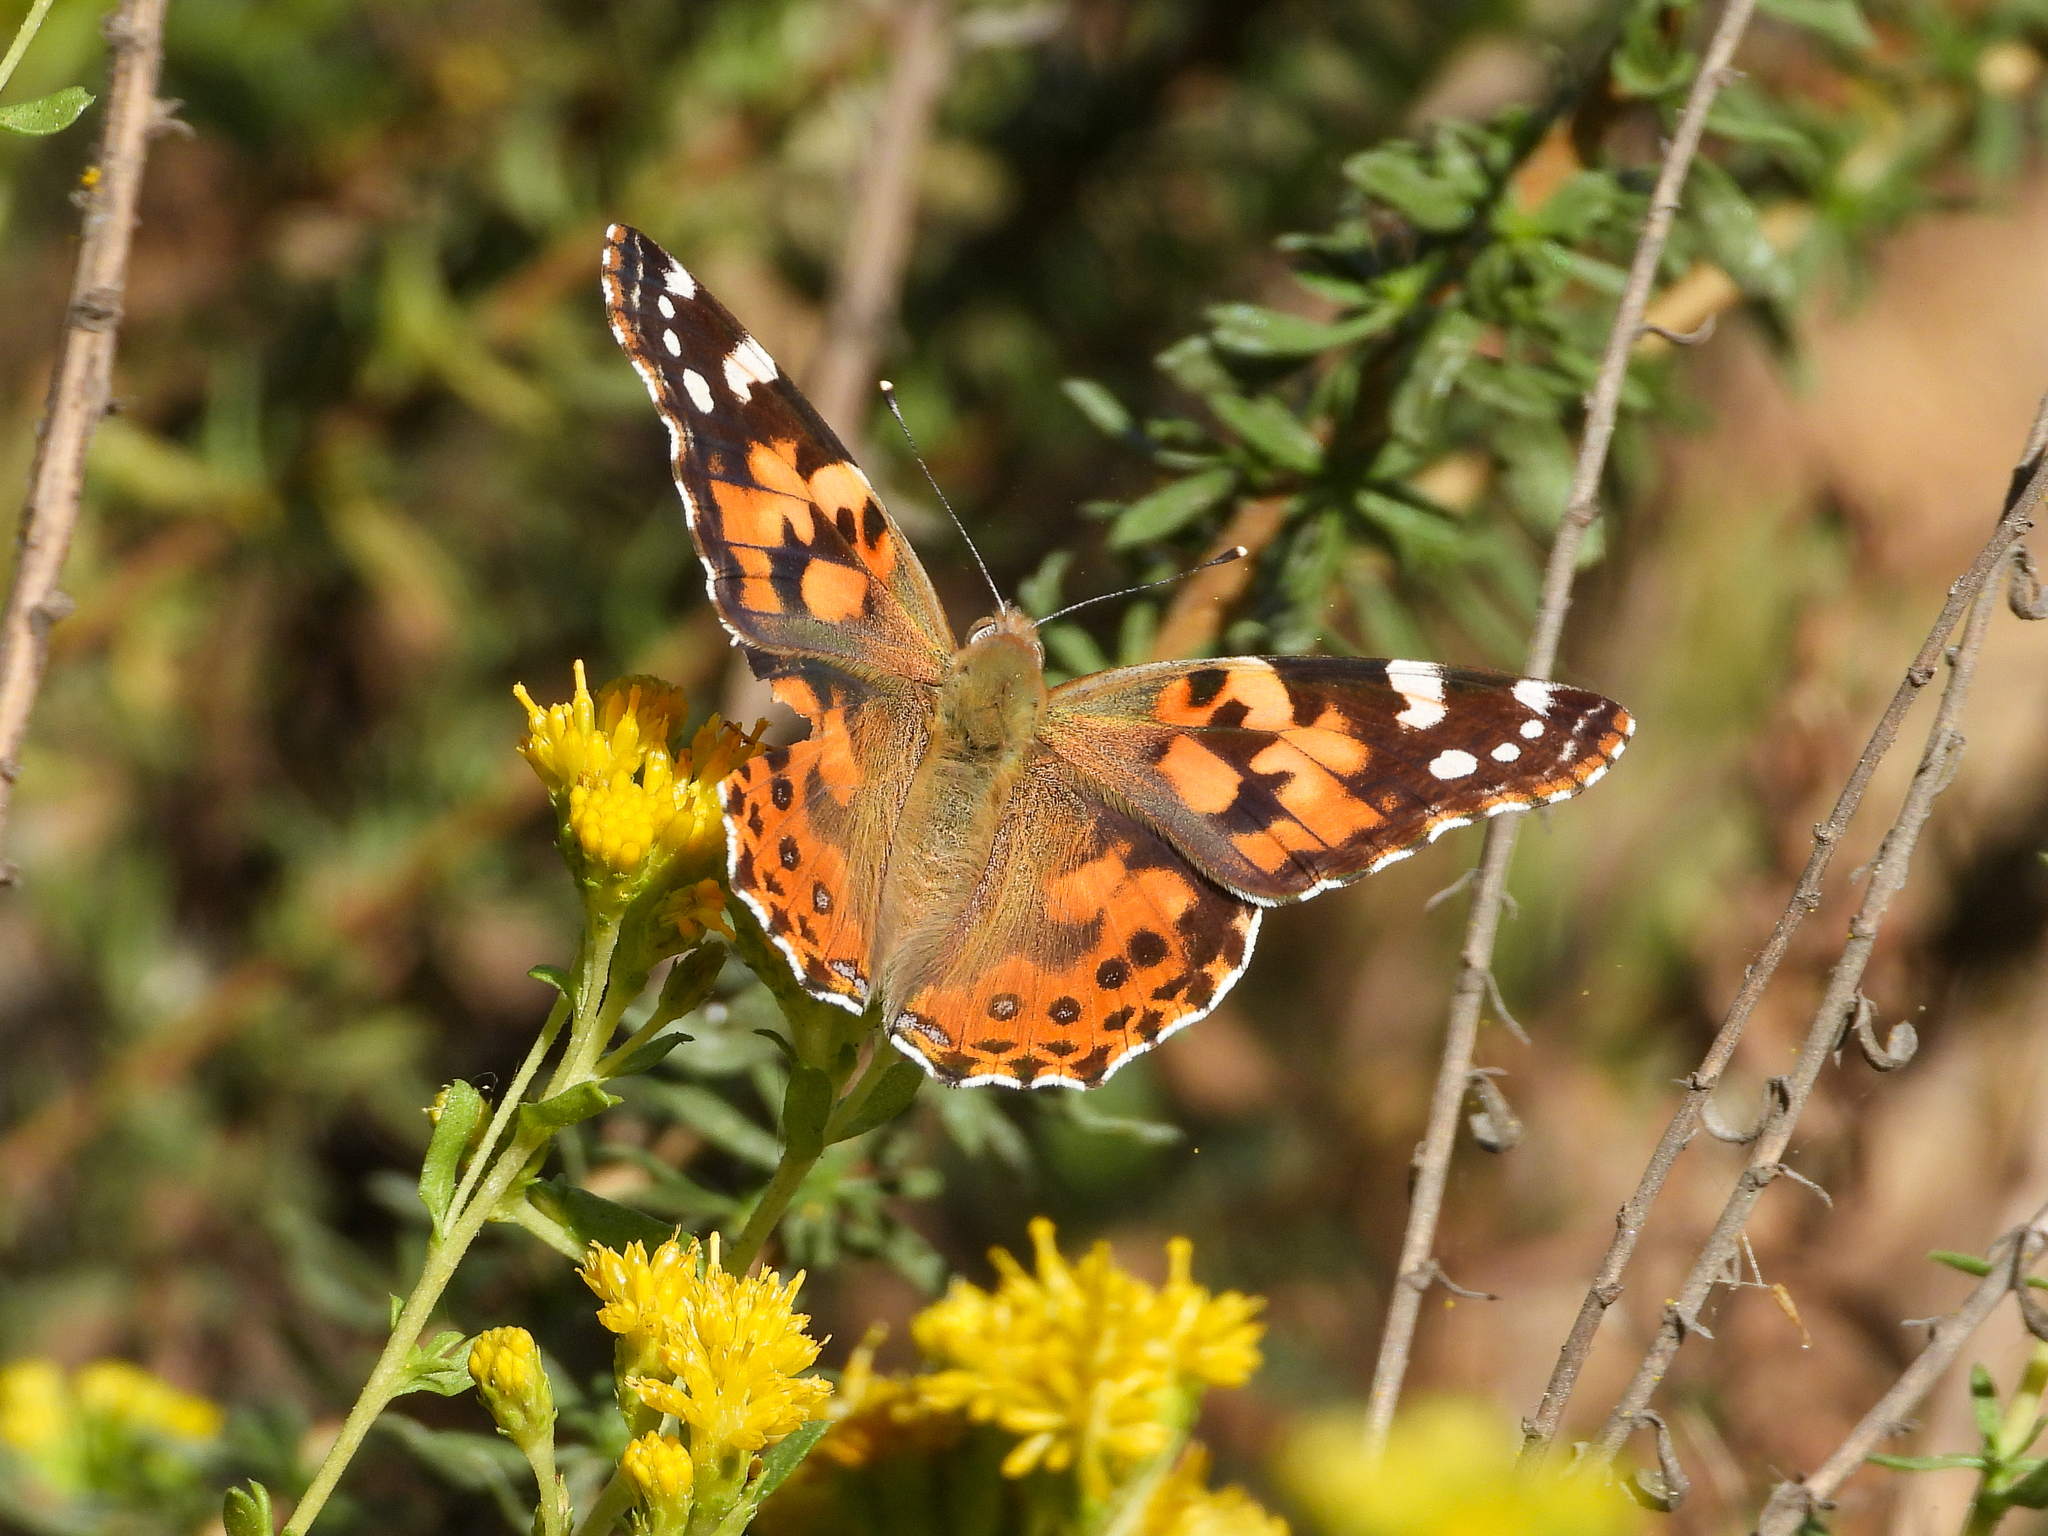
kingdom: Animalia
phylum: Arthropoda
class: Insecta
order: Lepidoptera
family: Nymphalidae
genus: Vanessa
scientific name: Vanessa cardui
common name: Painted lady
